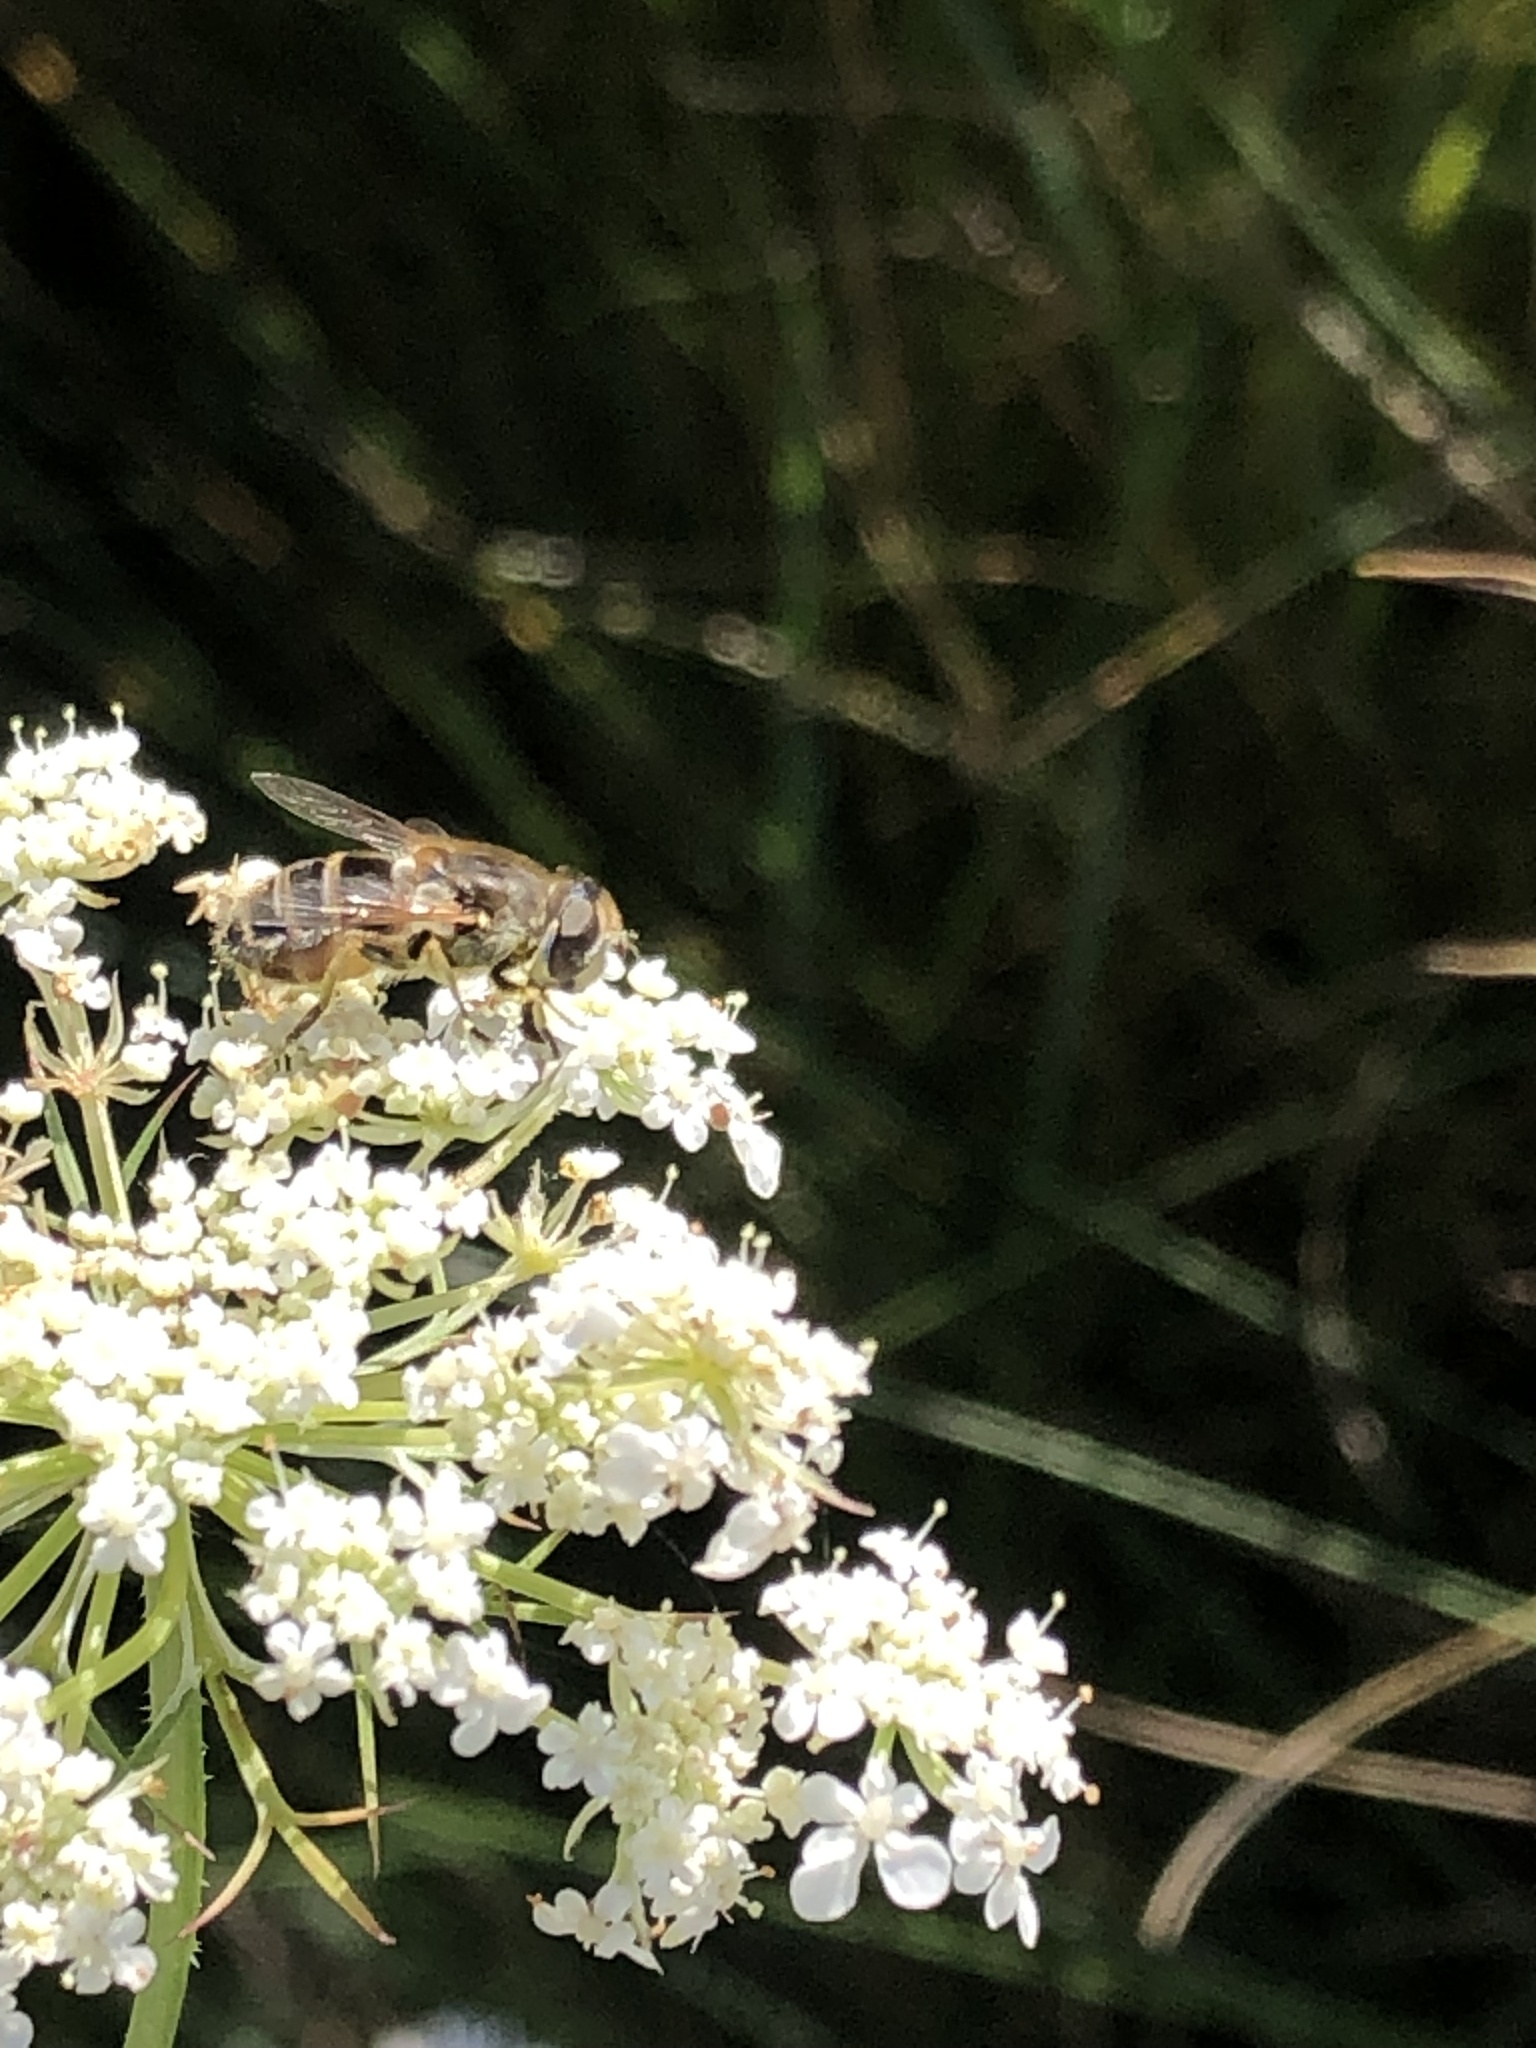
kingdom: Animalia
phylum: Arthropoda
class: Insecta
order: Diptera
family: Syrphidae
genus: Eristalis
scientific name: Eristalis arbustorum
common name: Hover fly
